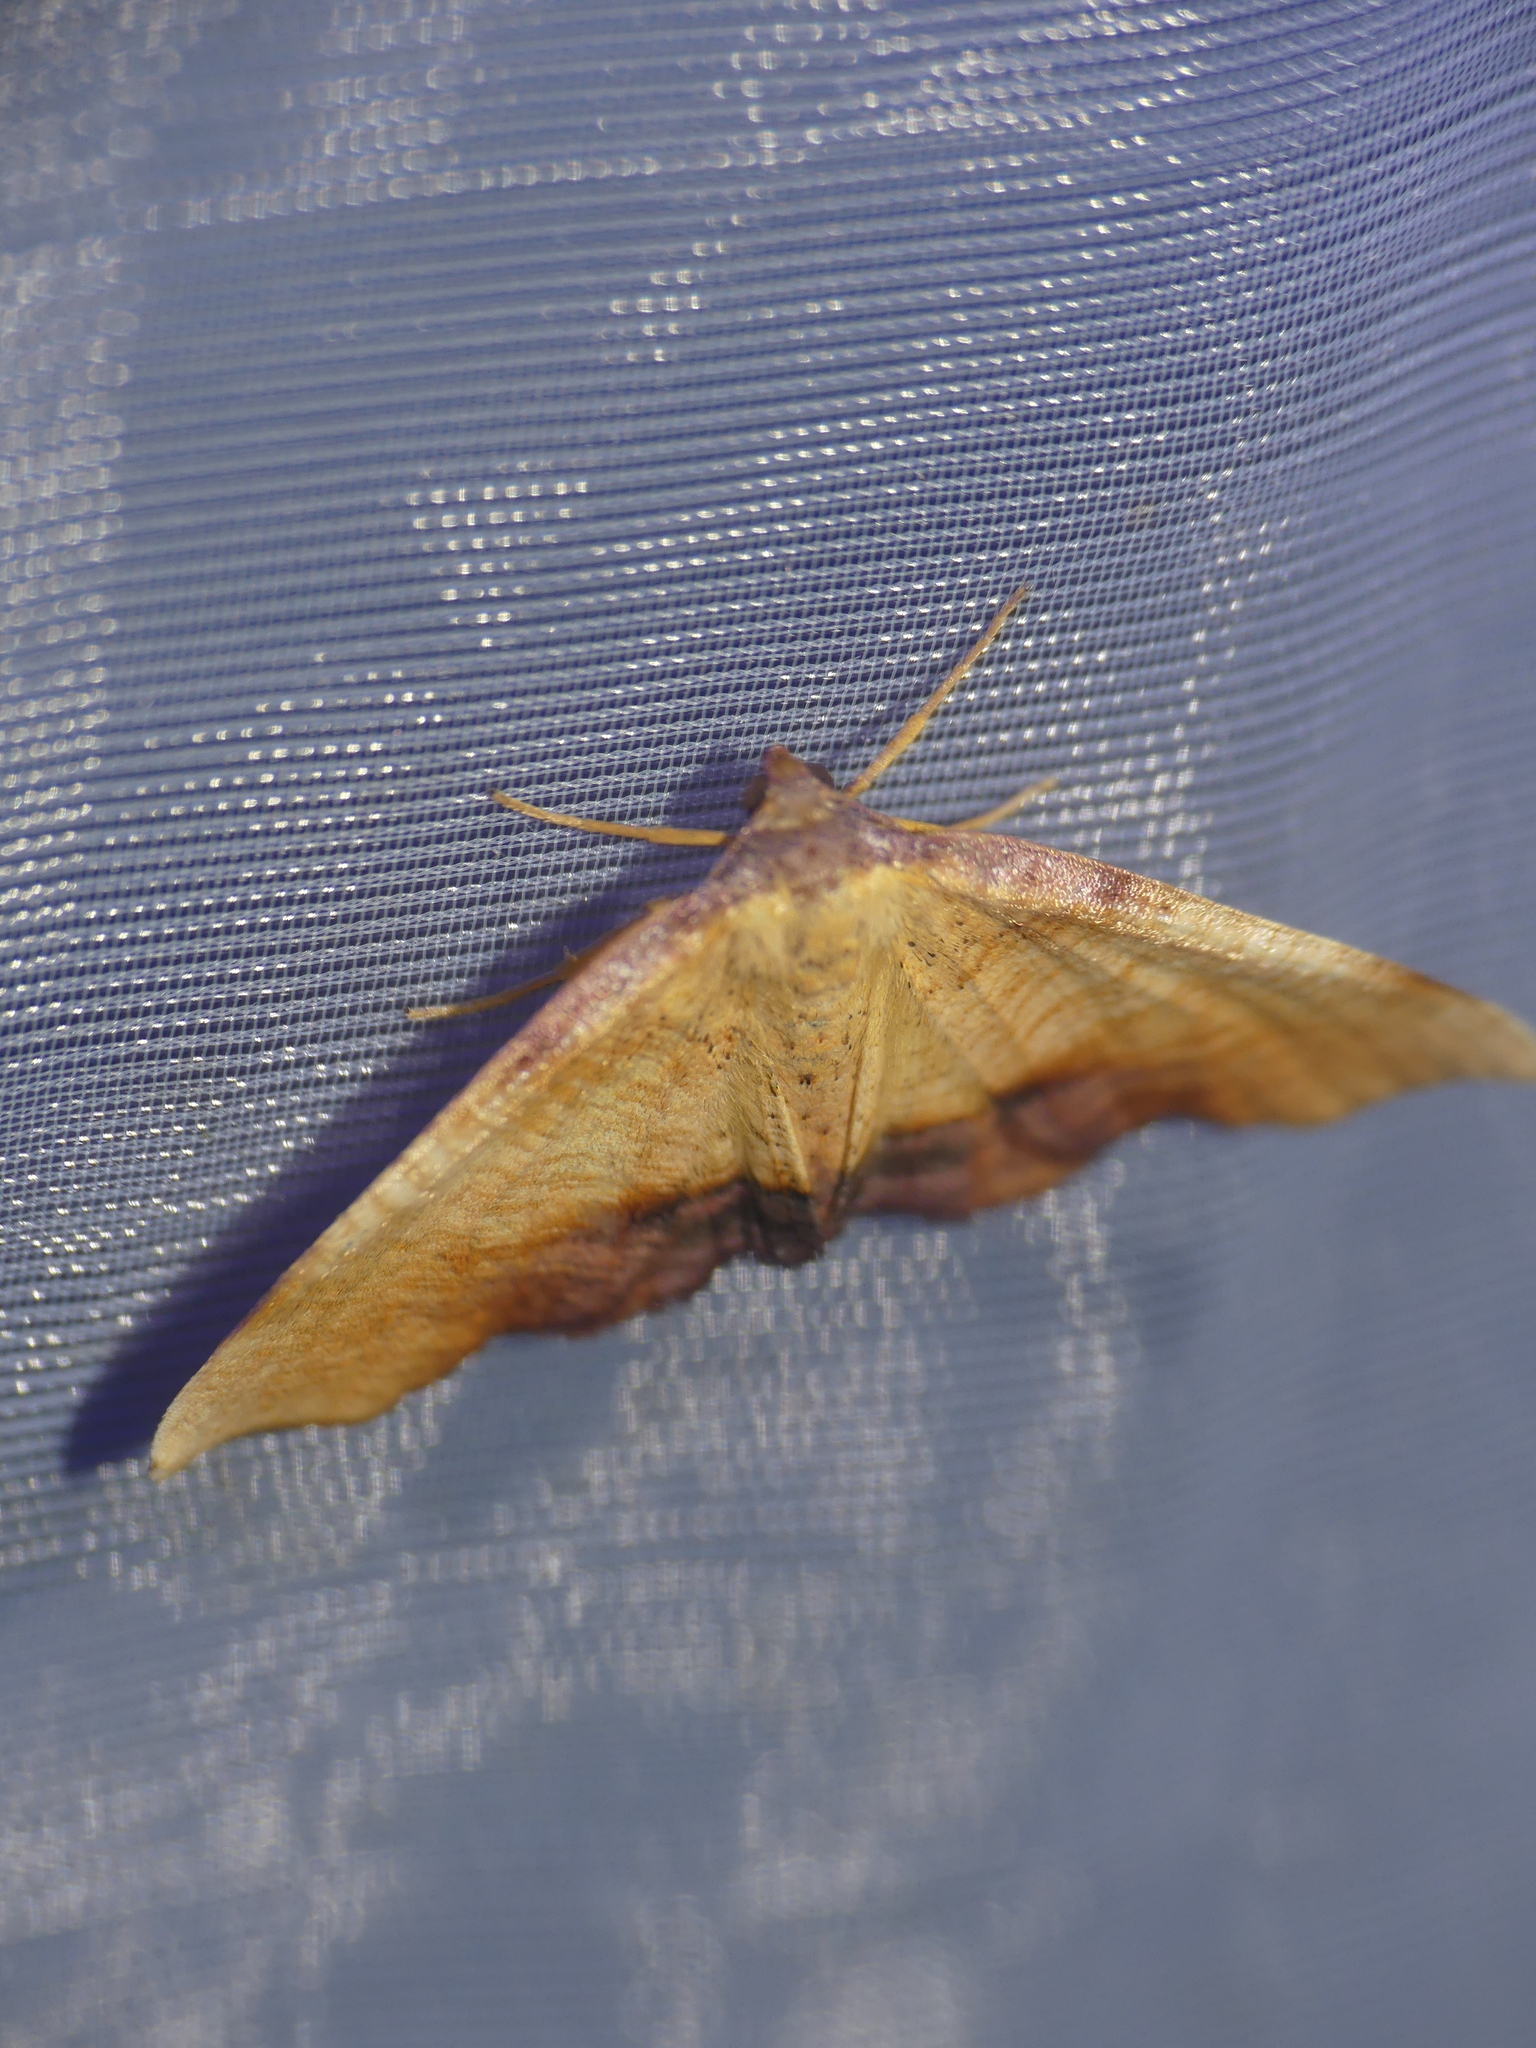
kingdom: Animalia
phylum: Arthropoda
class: Insecta
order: Lepidoptera
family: Geometridae
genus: Plagodis
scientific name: Plagodis dolabraria
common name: Scorched wing
